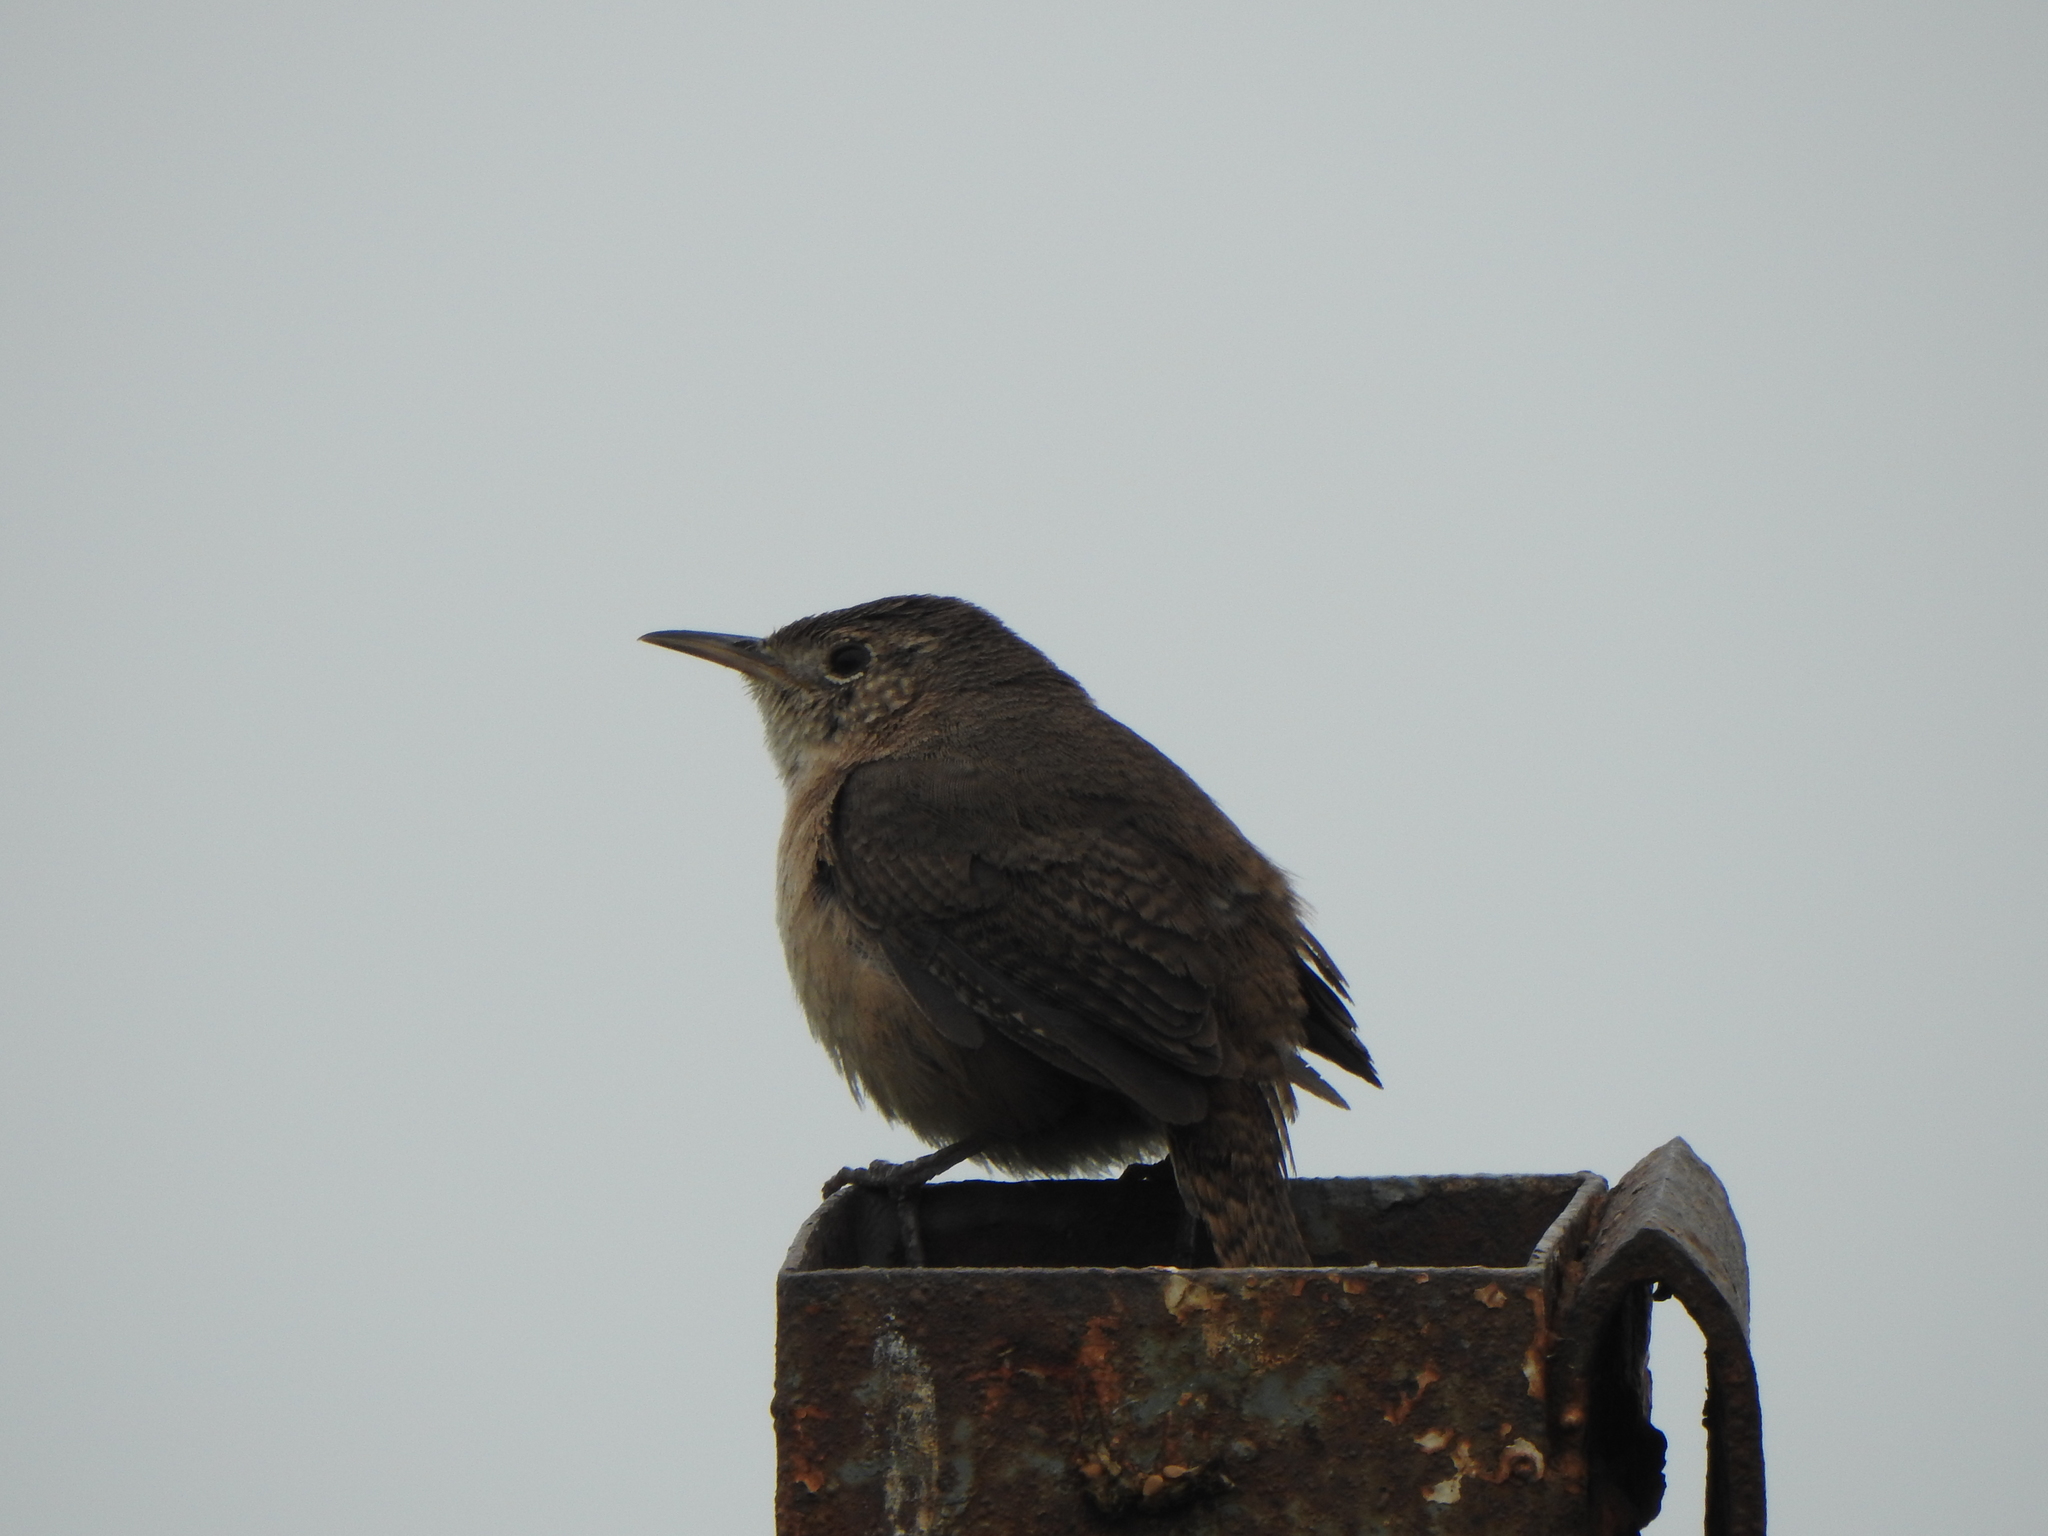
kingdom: Animalia
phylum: Chordata
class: Aves
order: Passeriformes
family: Troglodytidae
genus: Troglodytes
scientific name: Troglodytes aedon
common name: House wren
